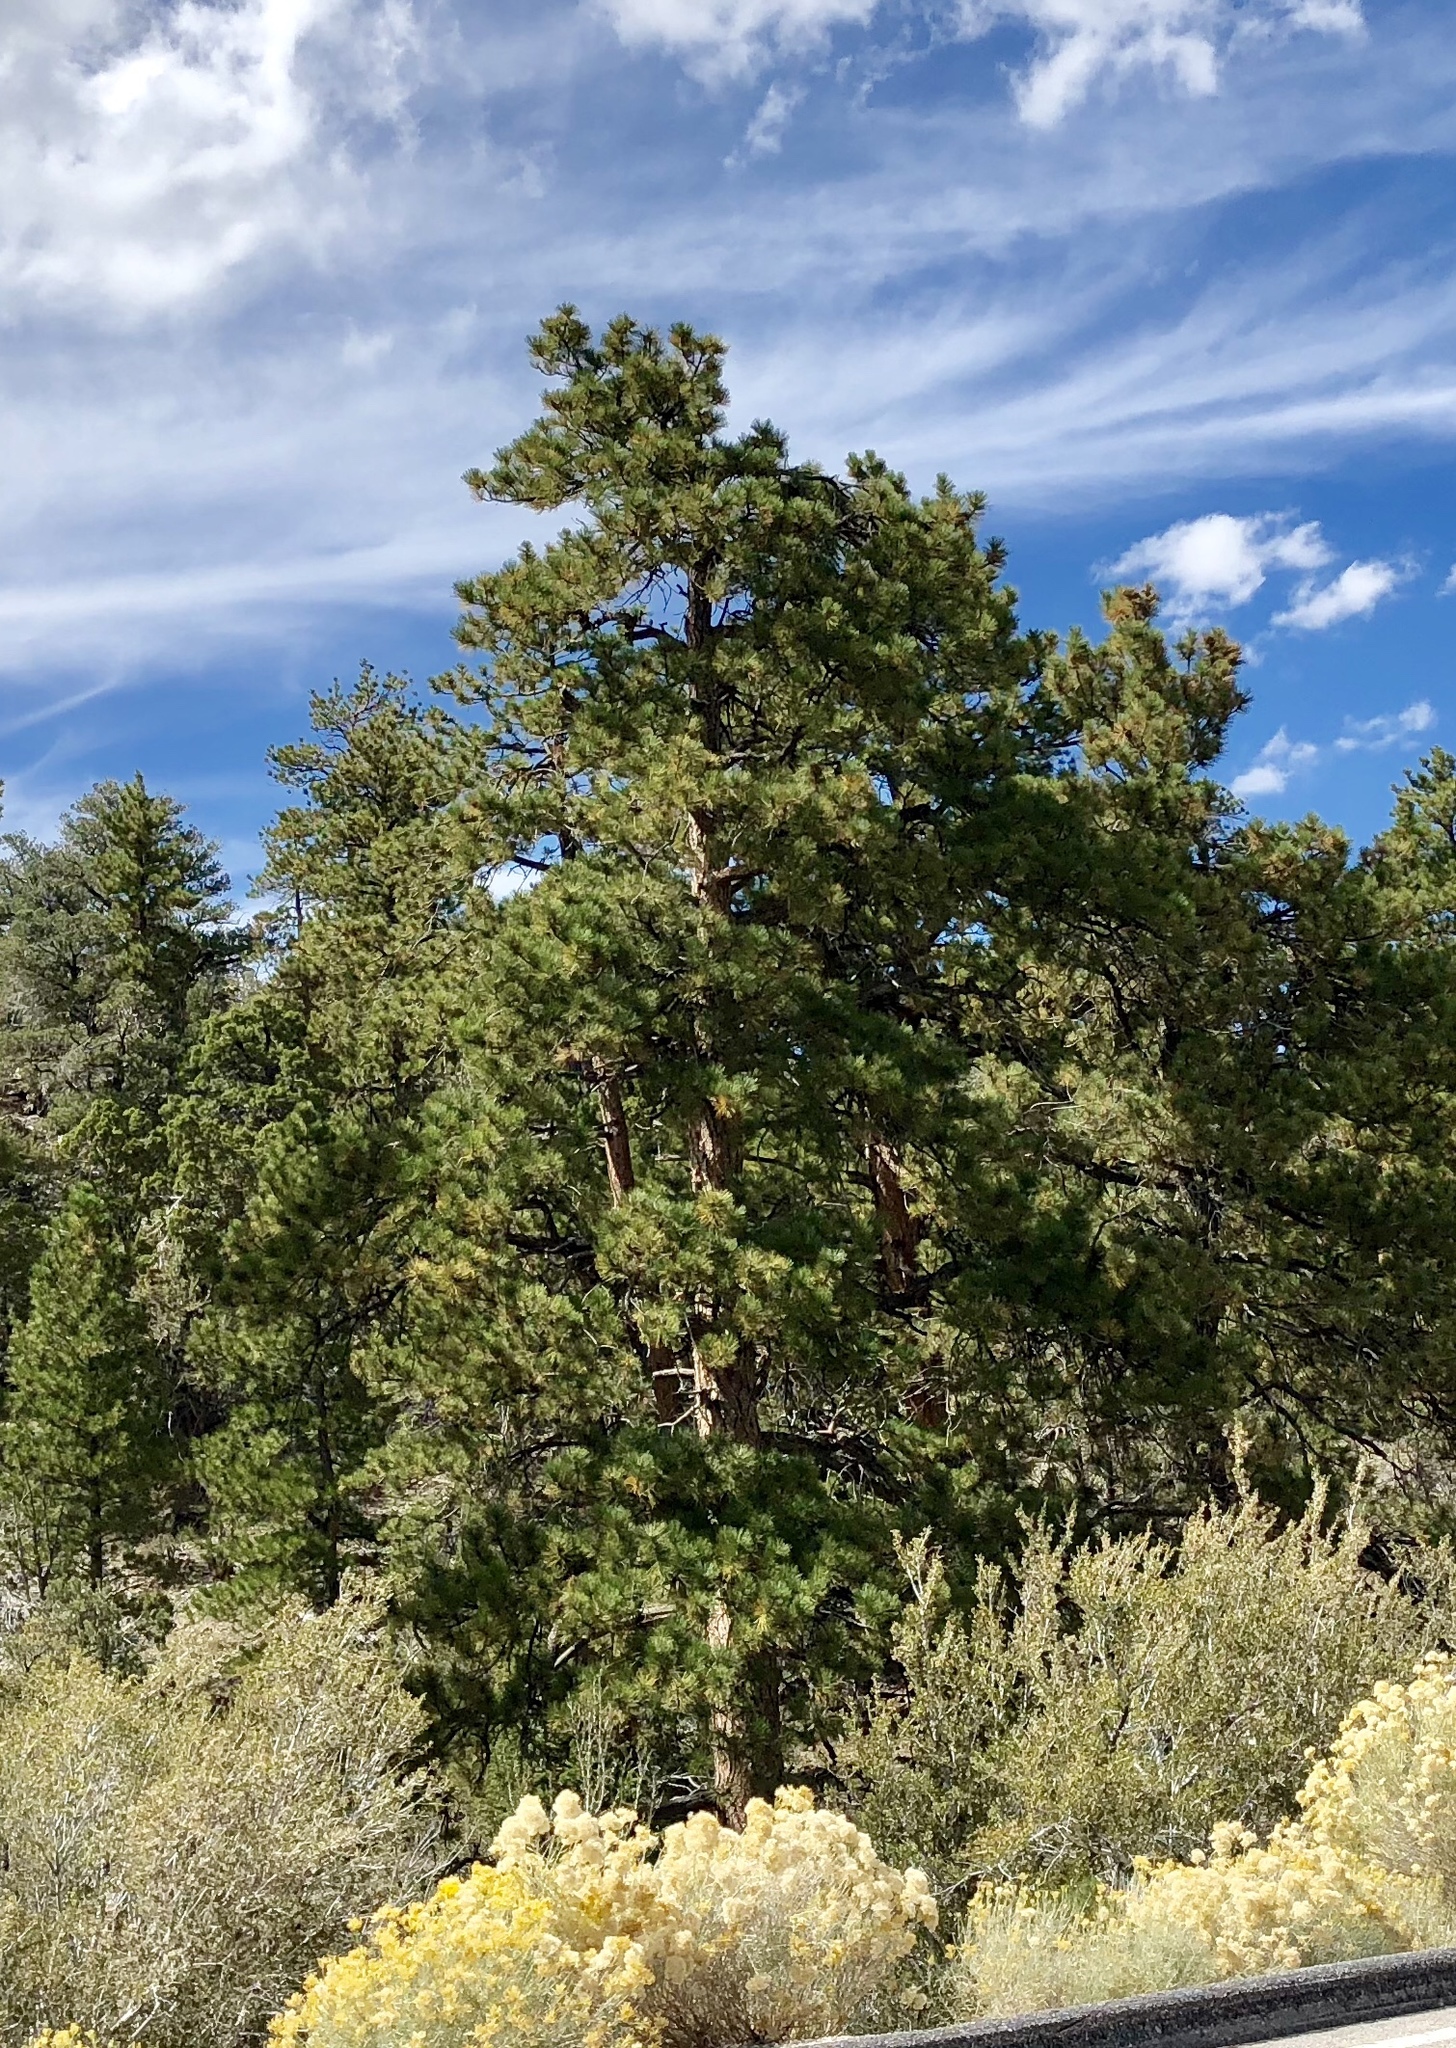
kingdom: Plantae
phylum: Tracheophyta
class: Pinopsida
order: Pinales
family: Pinaceae
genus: Pinus
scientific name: Pinus ponderosa
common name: Western yellow-pine
